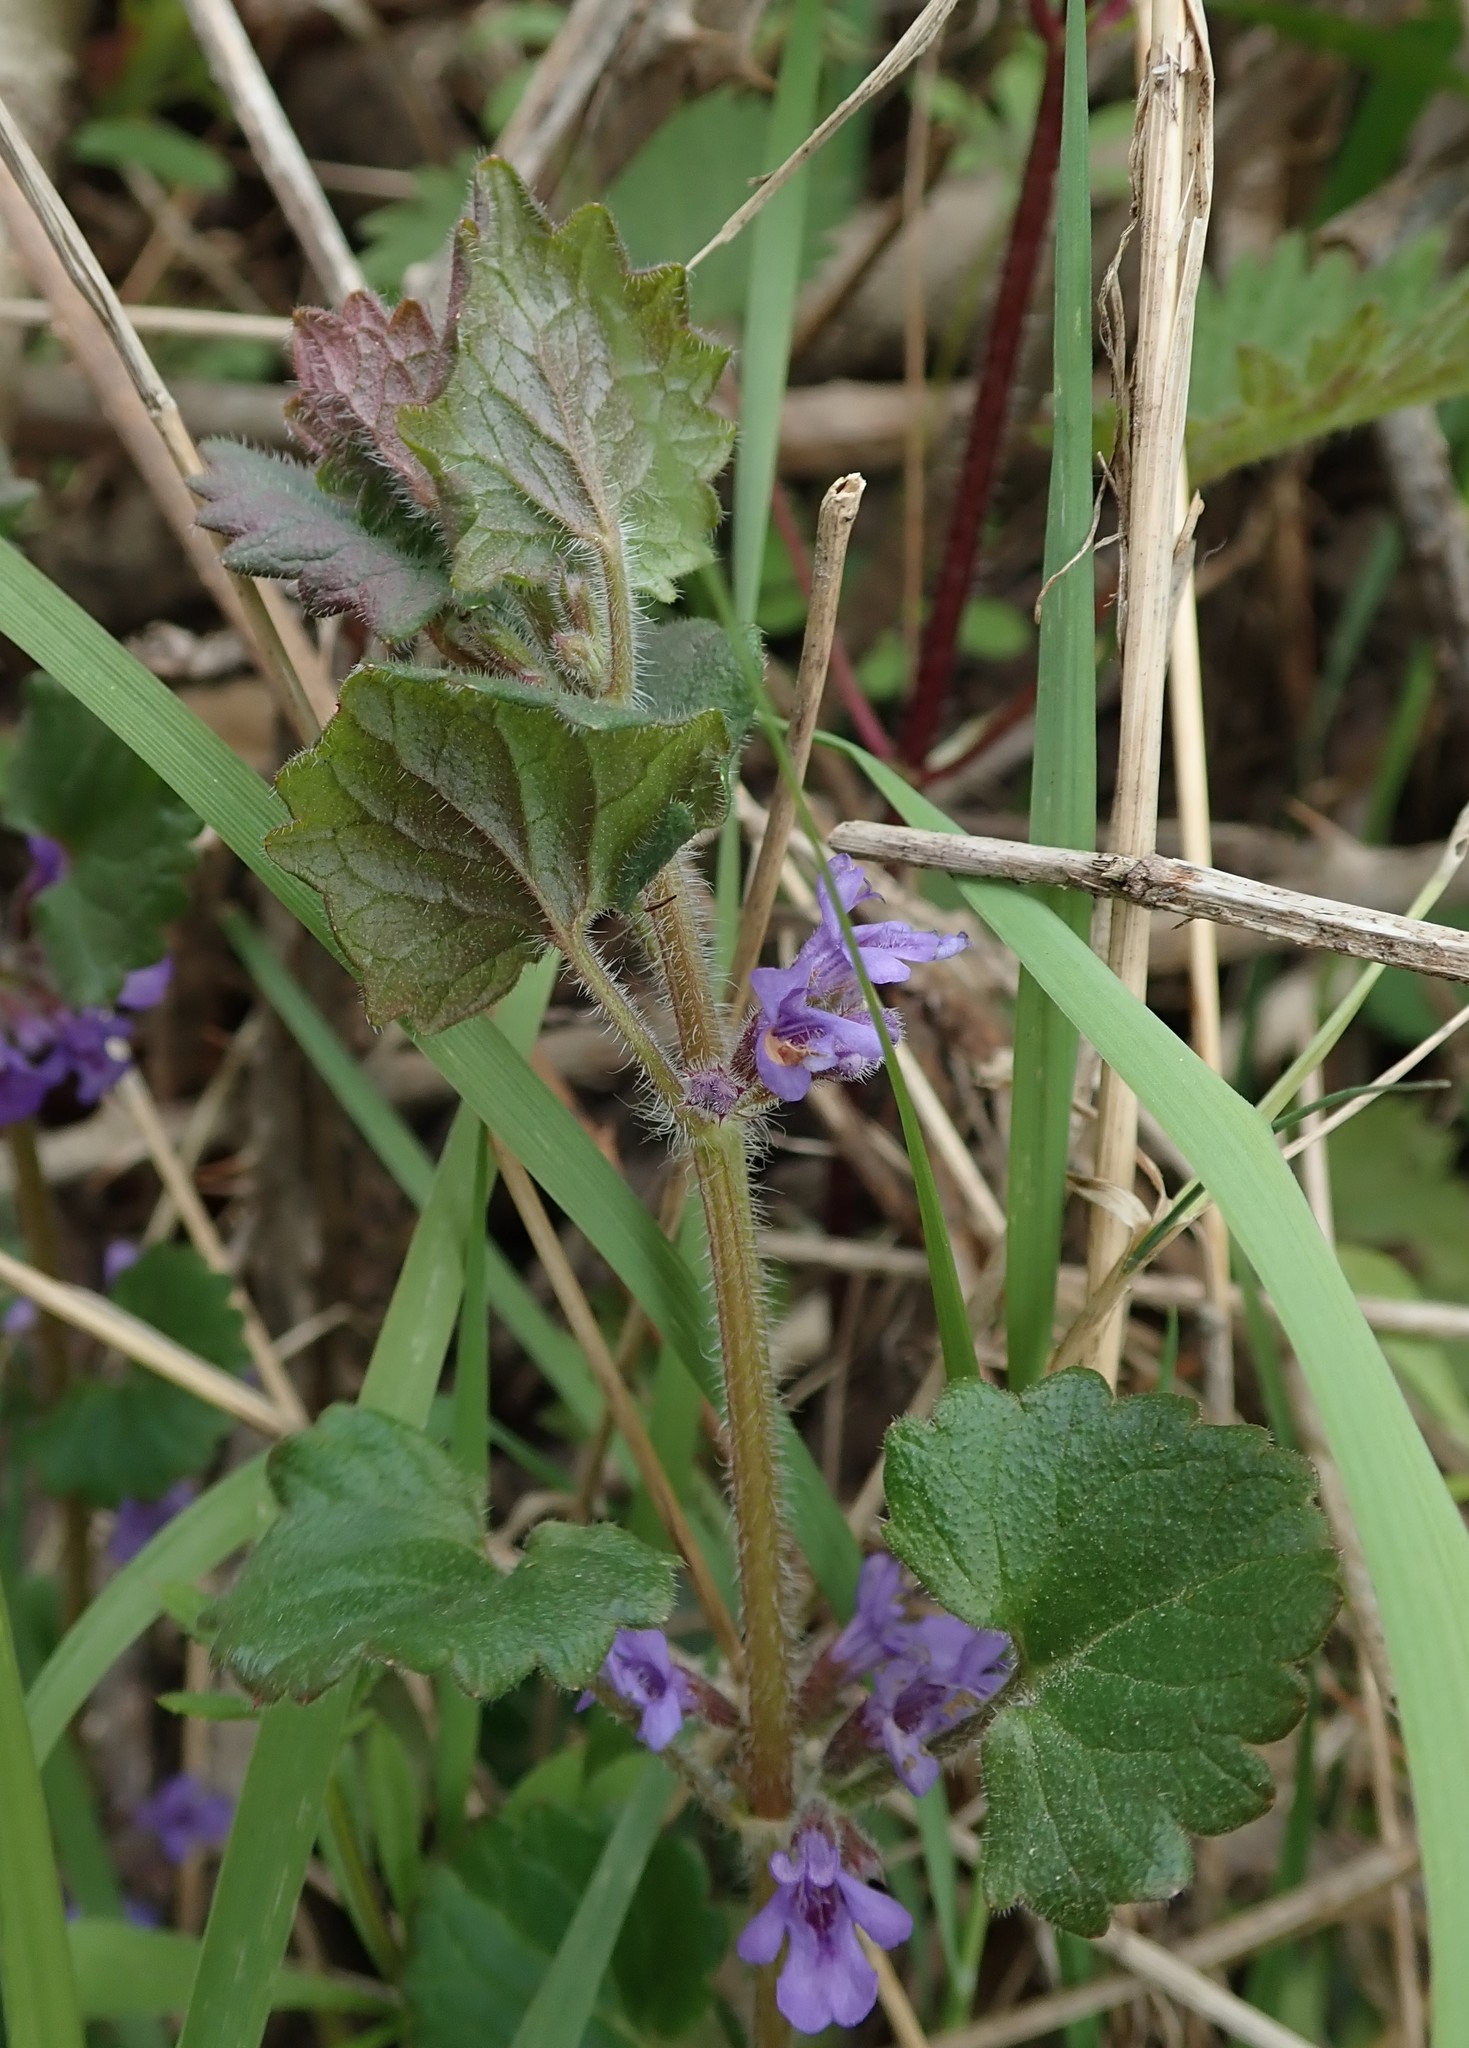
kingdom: Plantae
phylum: Tracheophyta
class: Magnoliopsida
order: Lamiales
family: Lamiaceae
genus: Glechoma
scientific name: Glechoma hederacea
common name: Ground ivy
